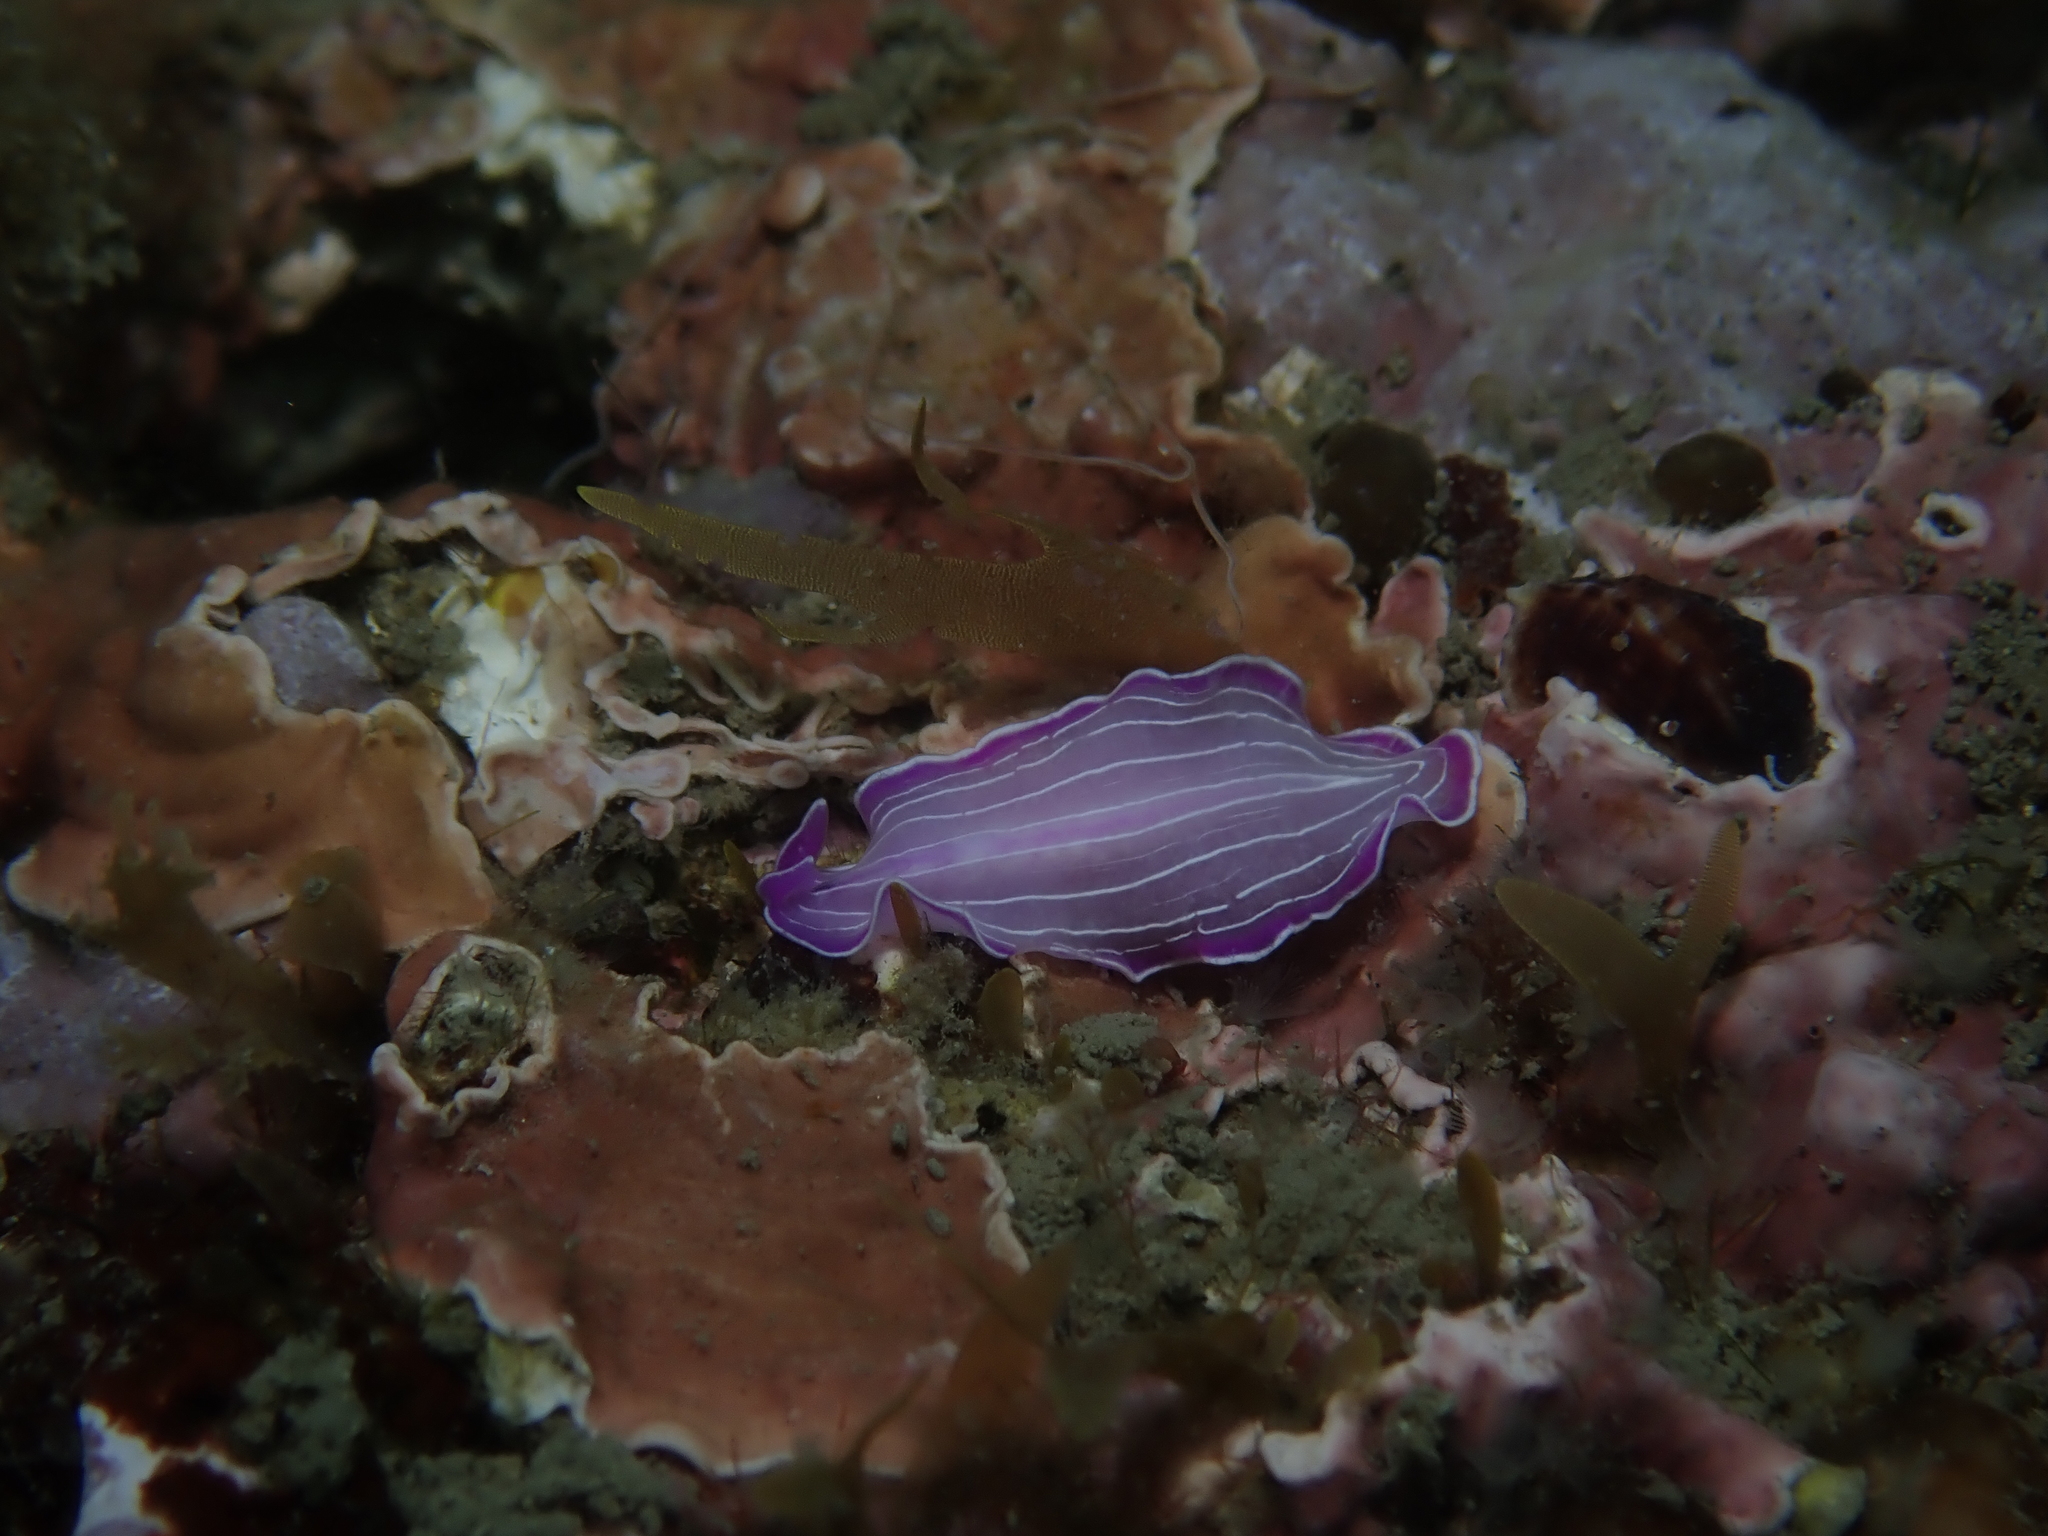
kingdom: Animalia
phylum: Platyhelminthes
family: Euryleptidae
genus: Prostheceraeus
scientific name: Prostheceraeus roseus
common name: Pink flatworm
